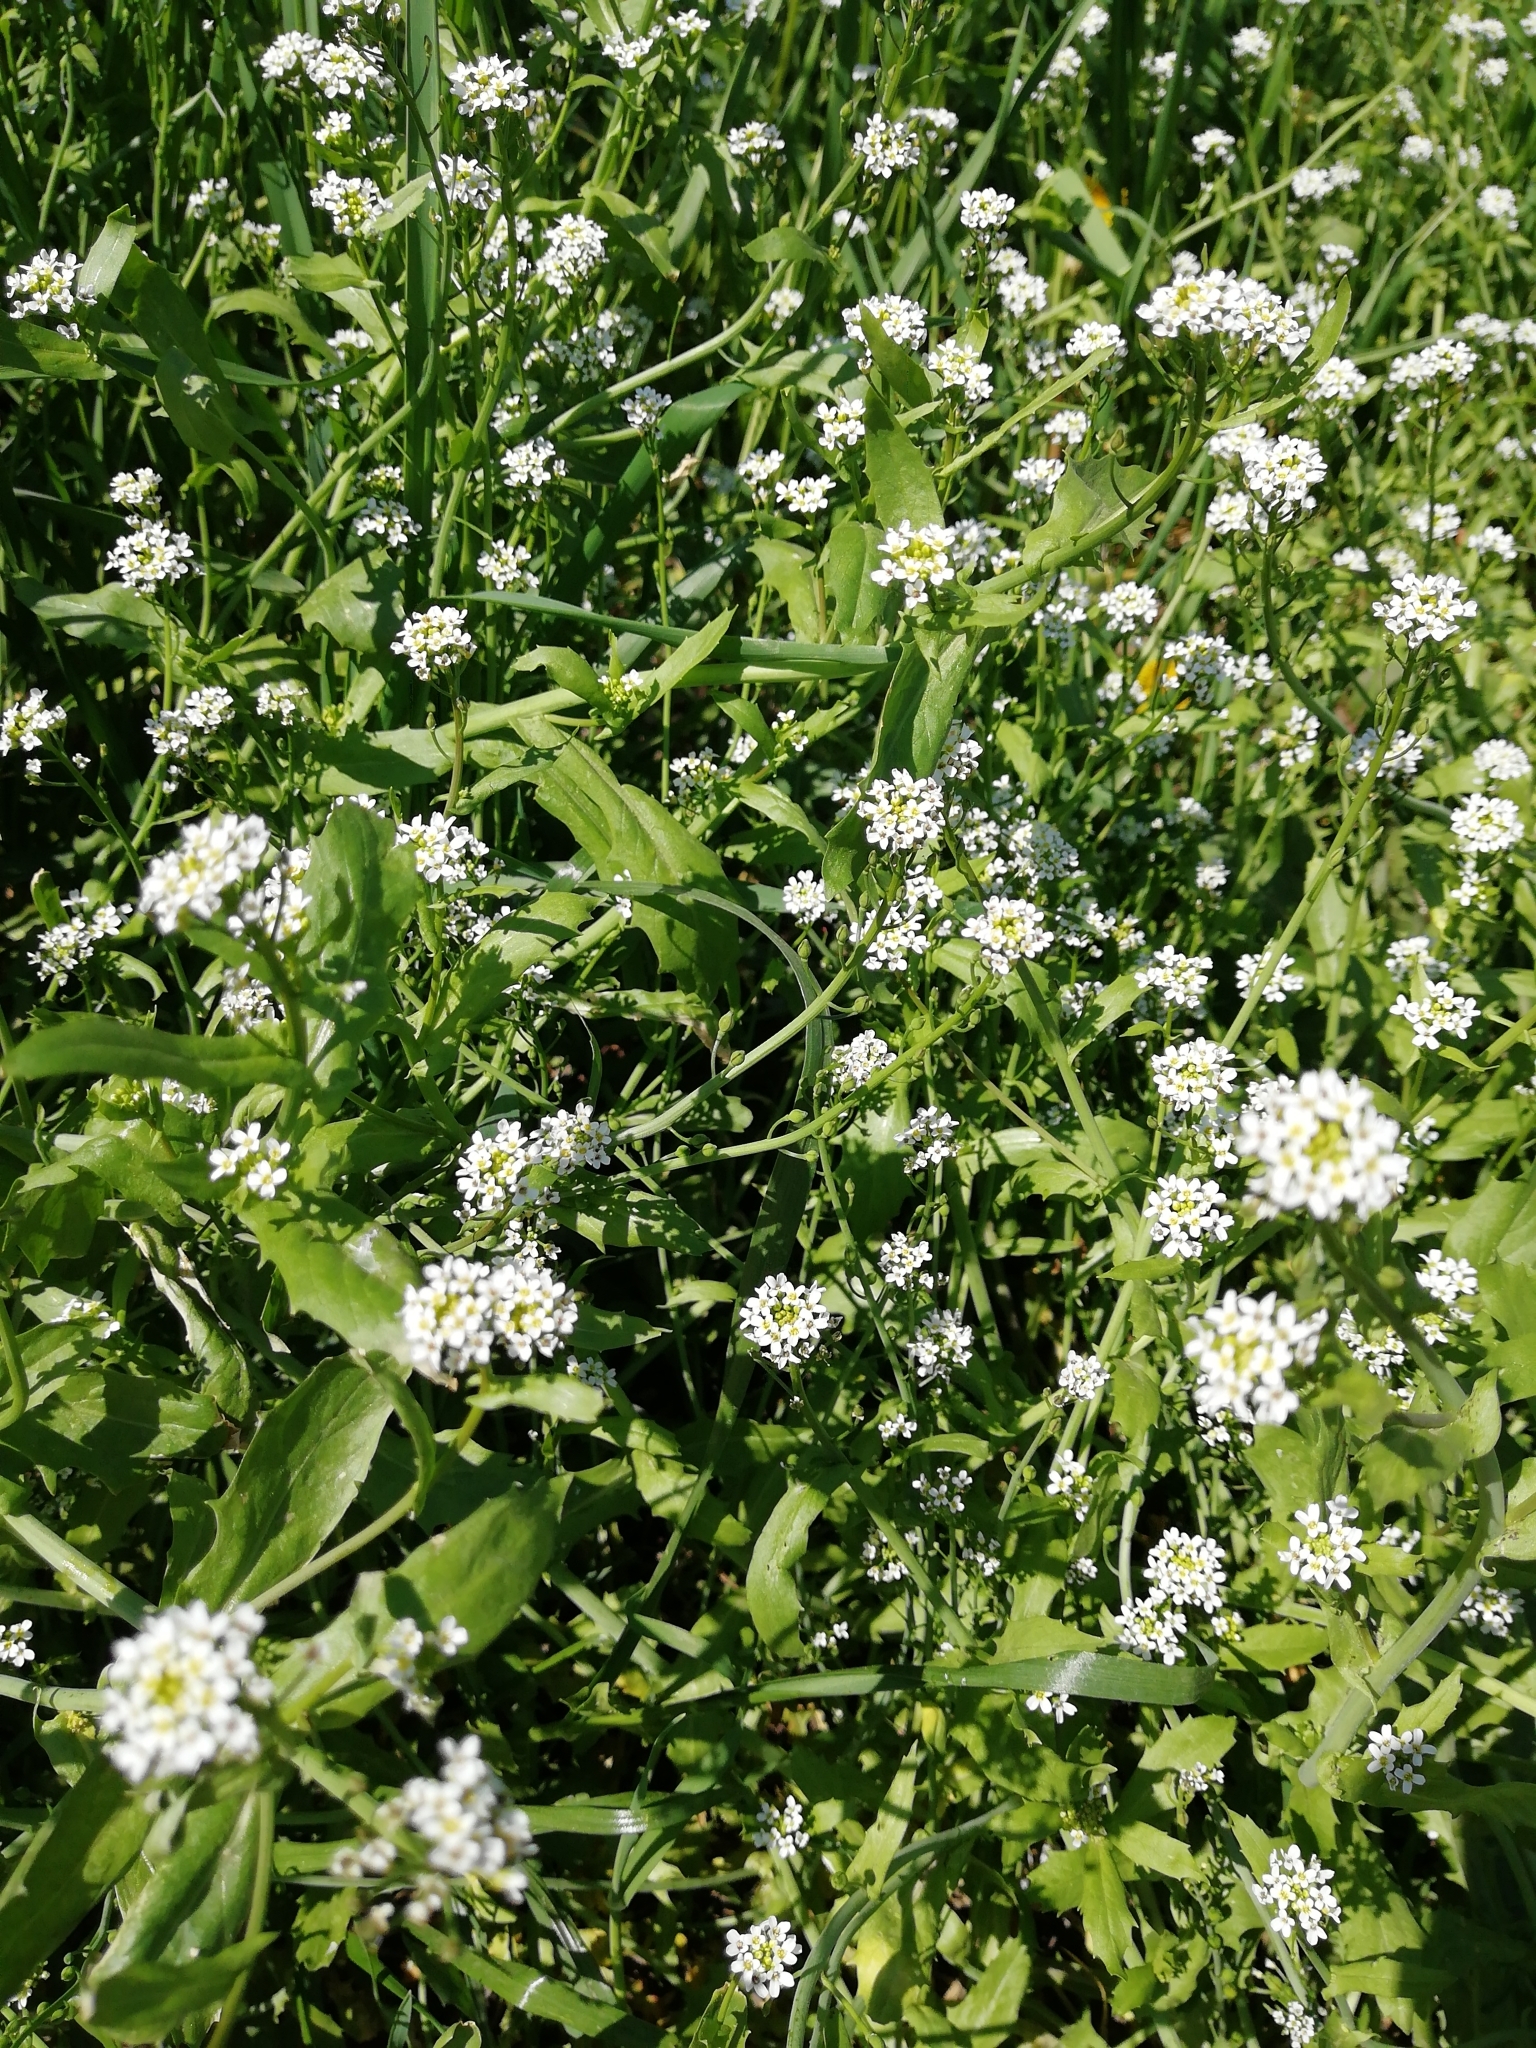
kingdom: Plantae
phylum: Tracheophyta
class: Magnoliopsida
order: Brassicales
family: Brassicaceae
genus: Calepina
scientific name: Calepina irregularis
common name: White ballmustard
